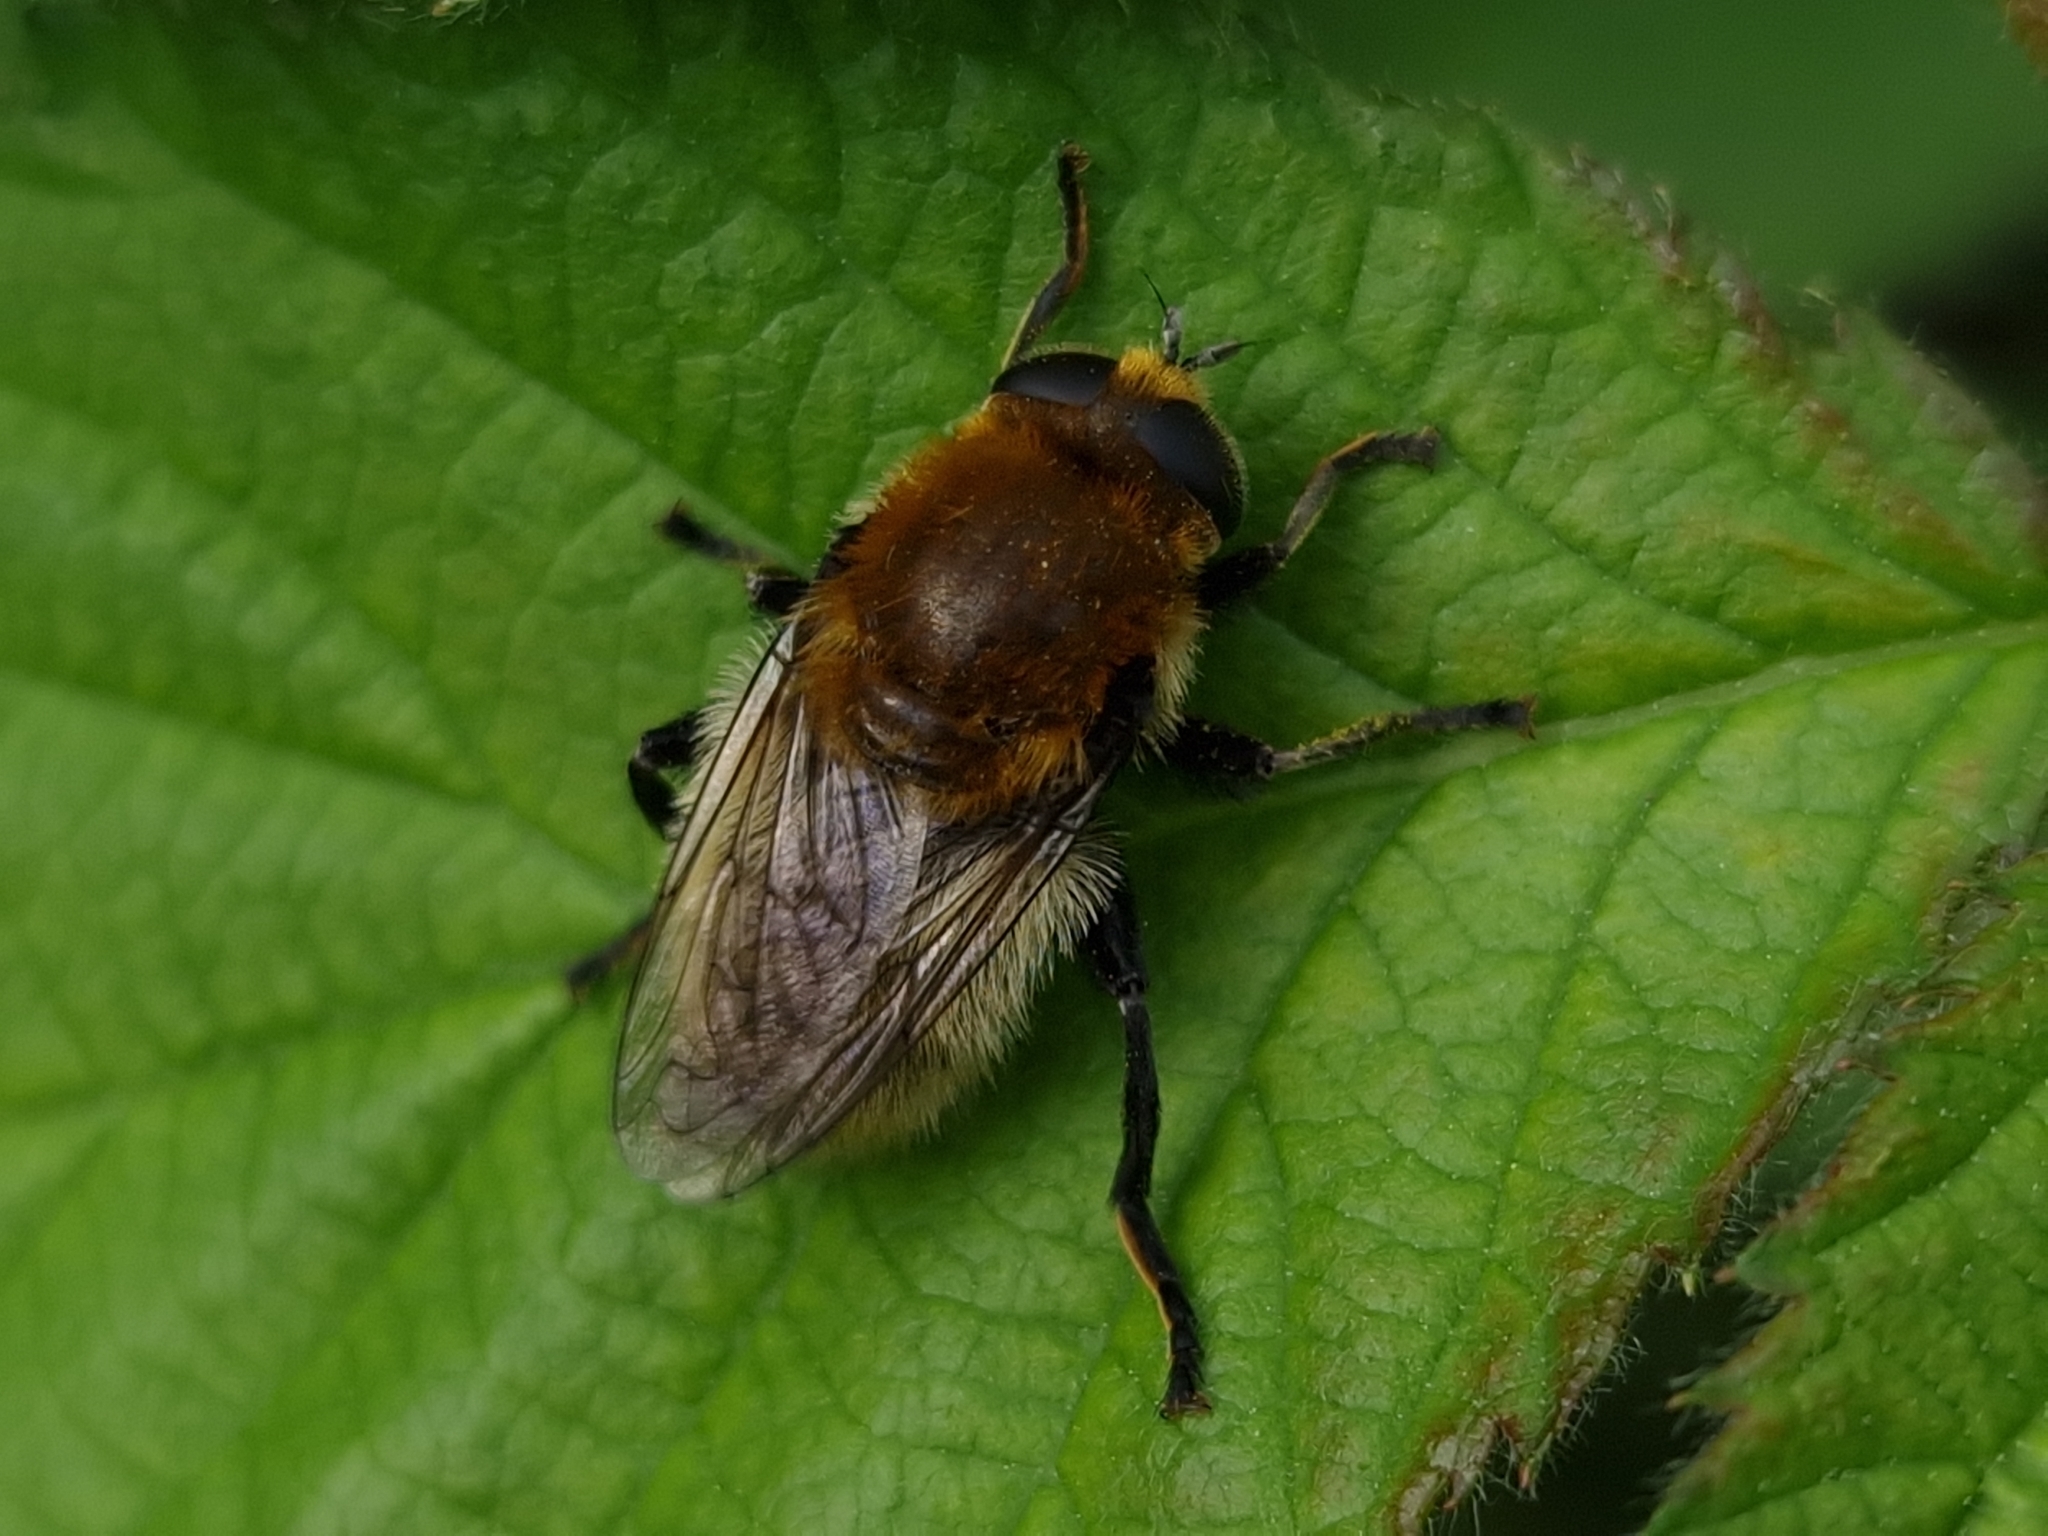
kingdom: Animalia
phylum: Arthropoda
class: Insecta
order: Diptera
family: Syrphidae
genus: Merodon
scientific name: Merodon equestris
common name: Greater bulb-fly
